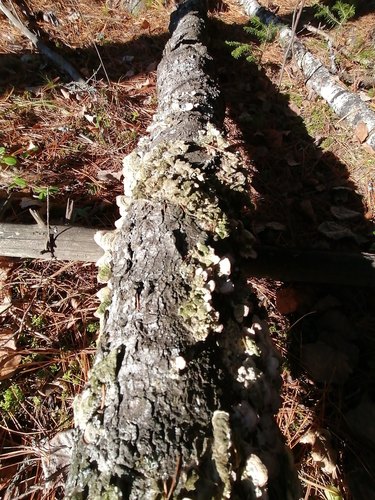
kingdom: Fungi
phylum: Basidiomycota
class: Agaricomycetes
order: Hymenochaetales
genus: Trichaptum
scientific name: Trichaptum biforme
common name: Violet-toothed polypore
